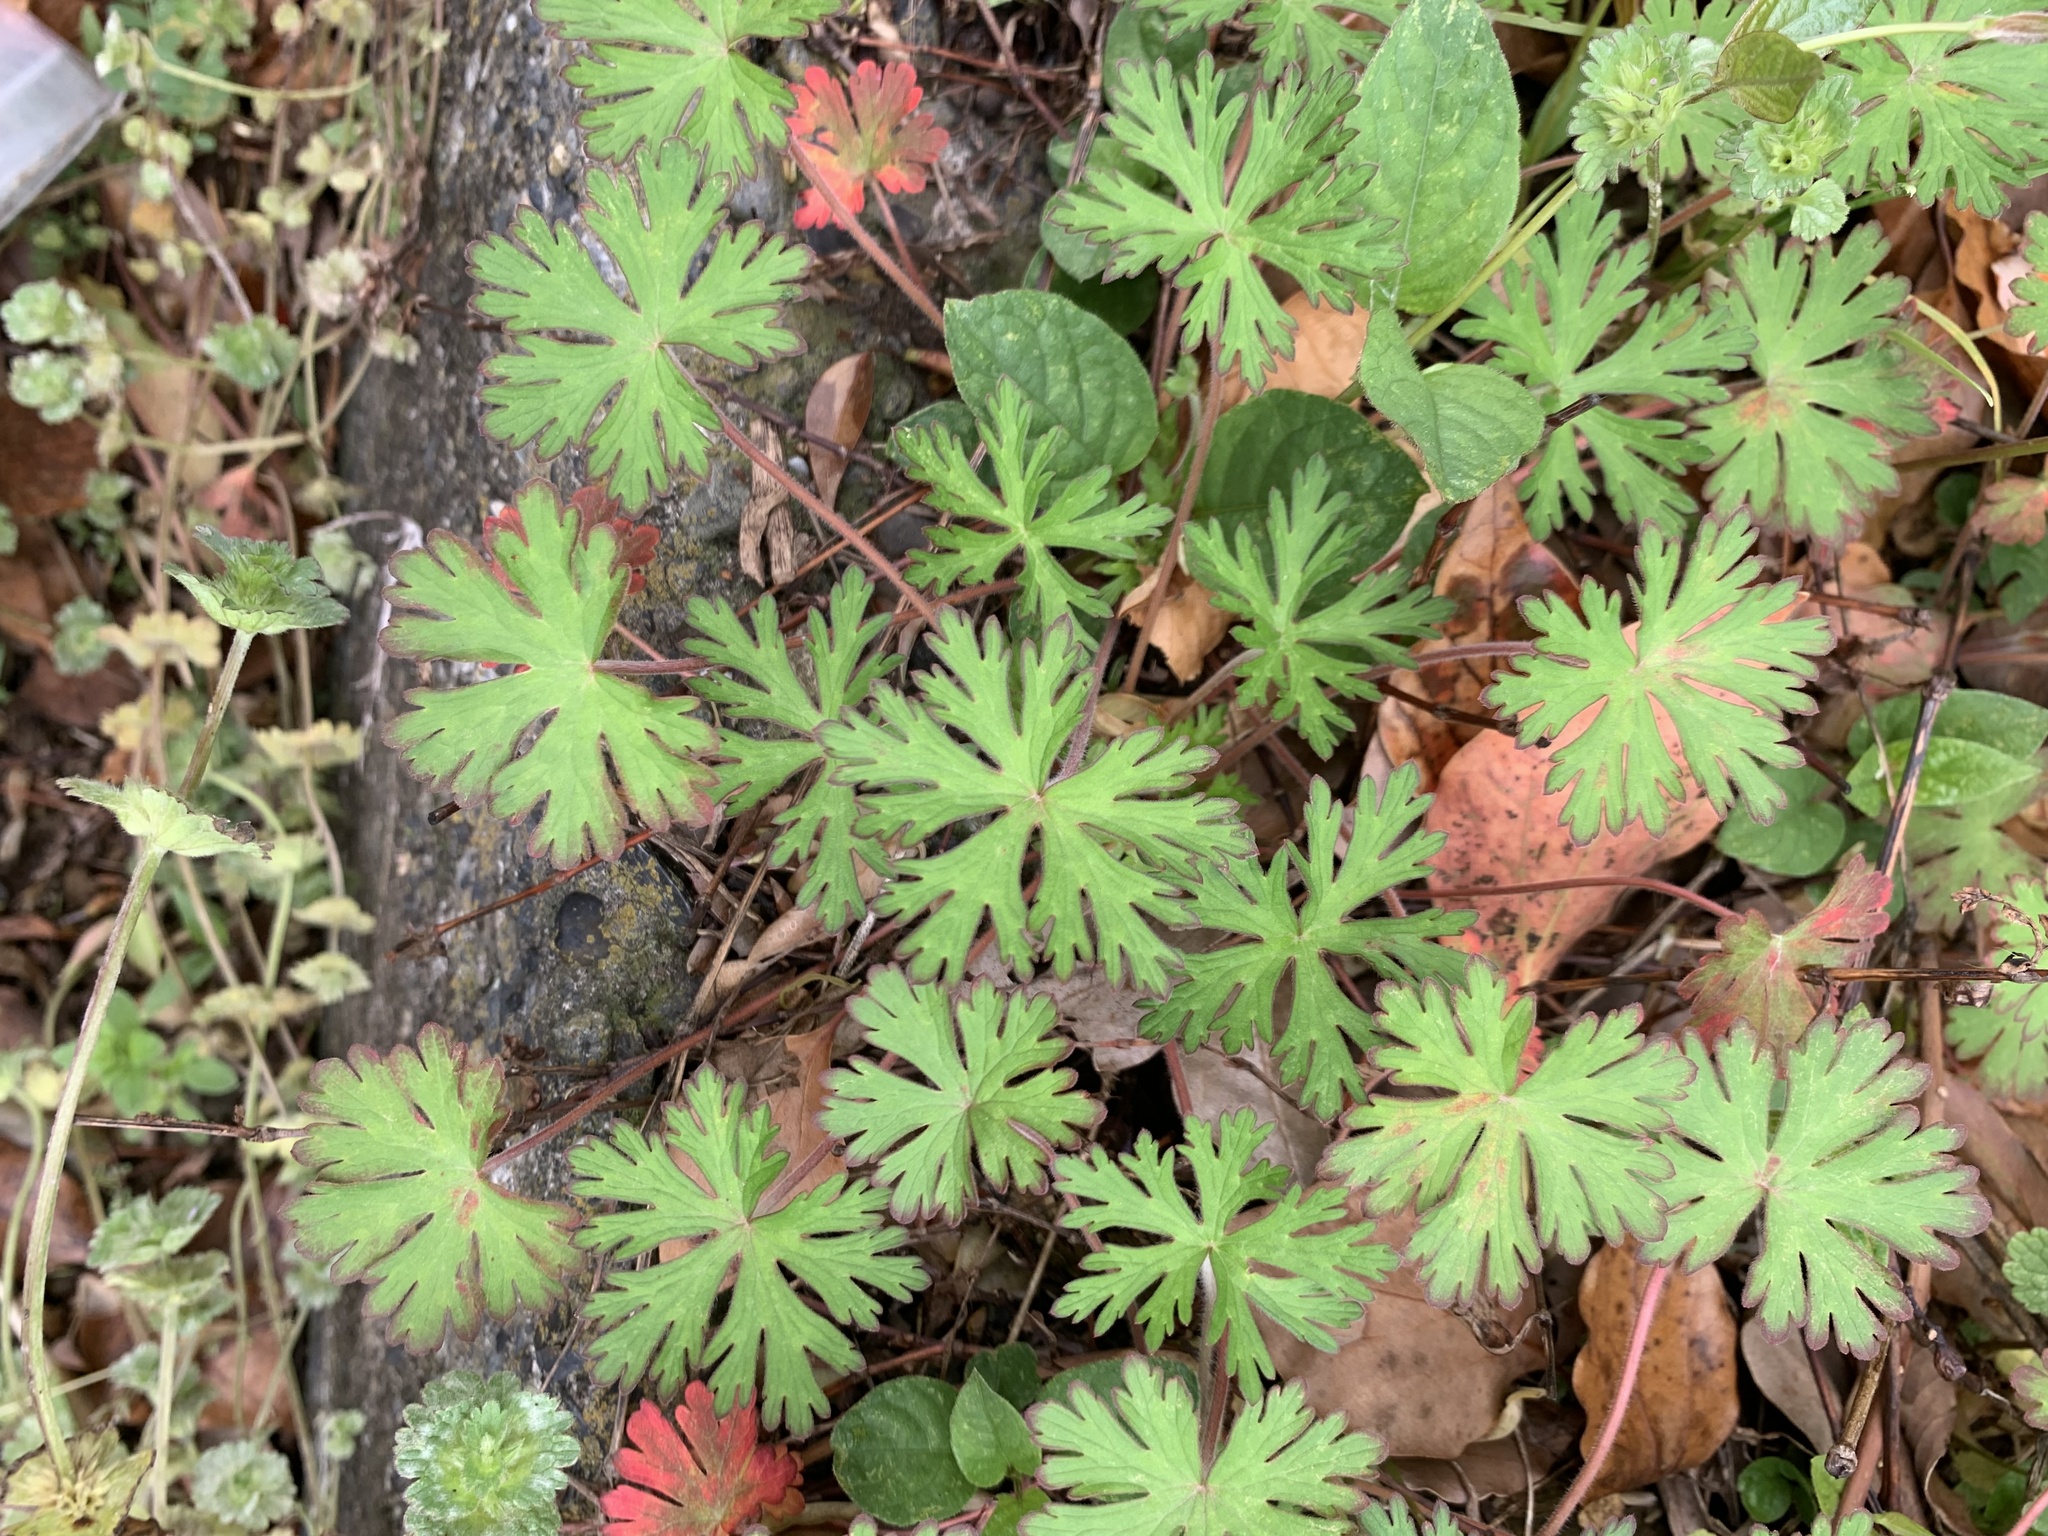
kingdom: Plantae
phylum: Tracheophyta
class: Magnoliopsida
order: Geraniales
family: Geraniaceae
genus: Geranium
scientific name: Geranium carolinianum
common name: Carolina crane's-bill
